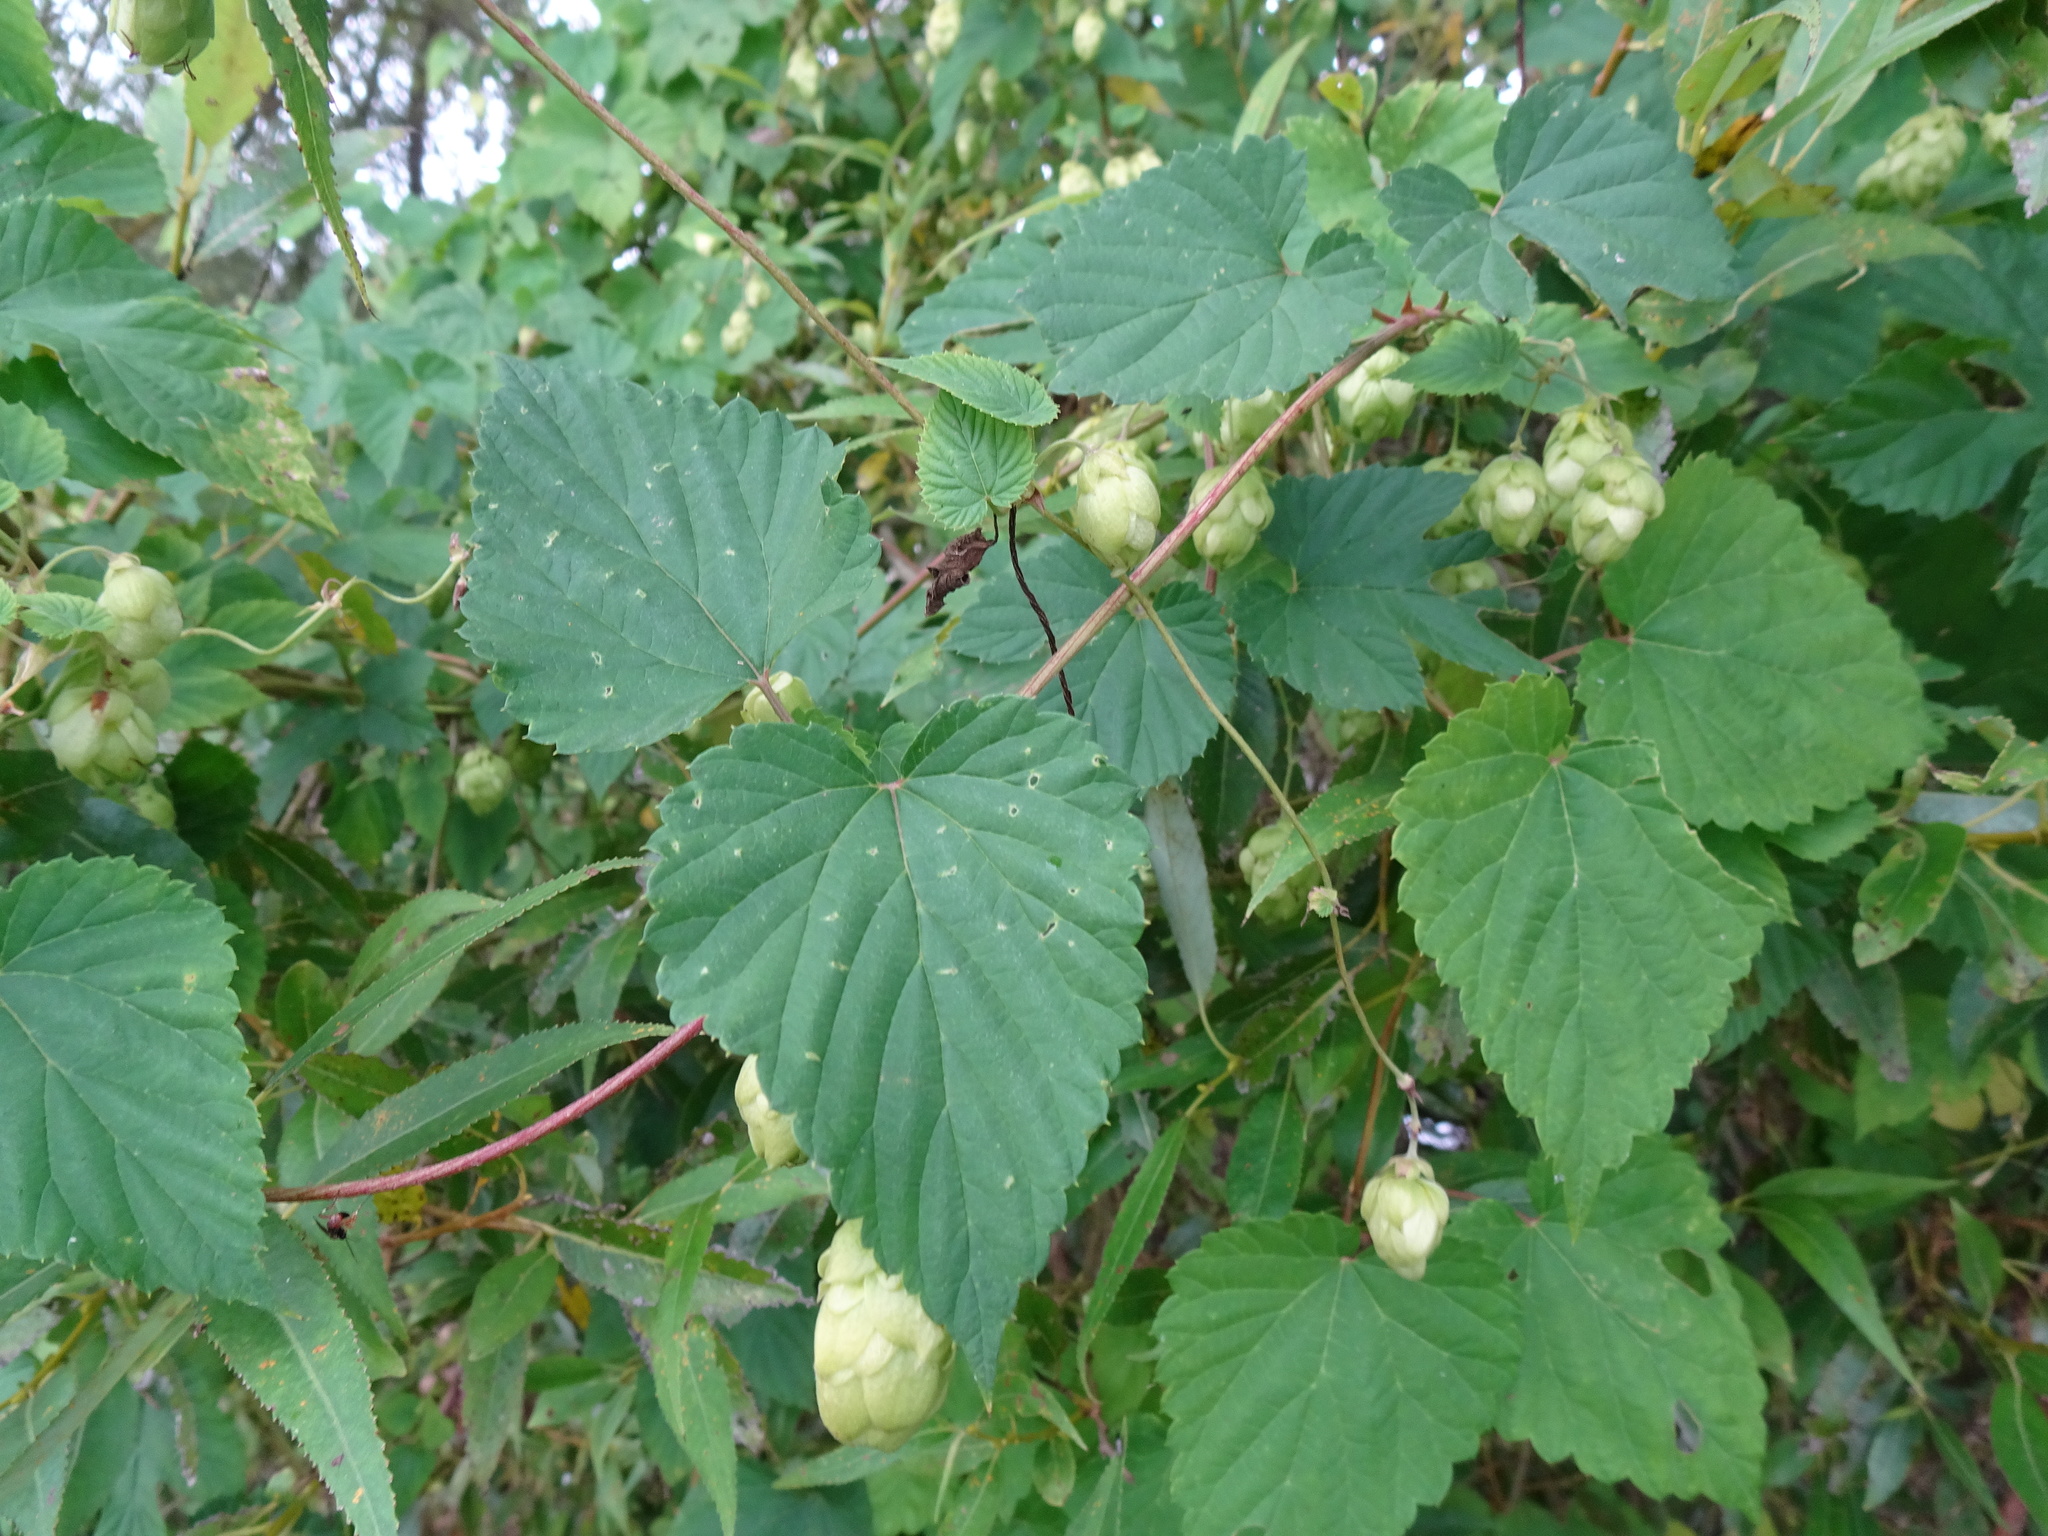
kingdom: Plantae
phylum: Tracheophyta
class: Magnoliopsida
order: Rosales
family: Cannabaceae
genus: Humulus
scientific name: Humulus lupulus
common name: Hop
